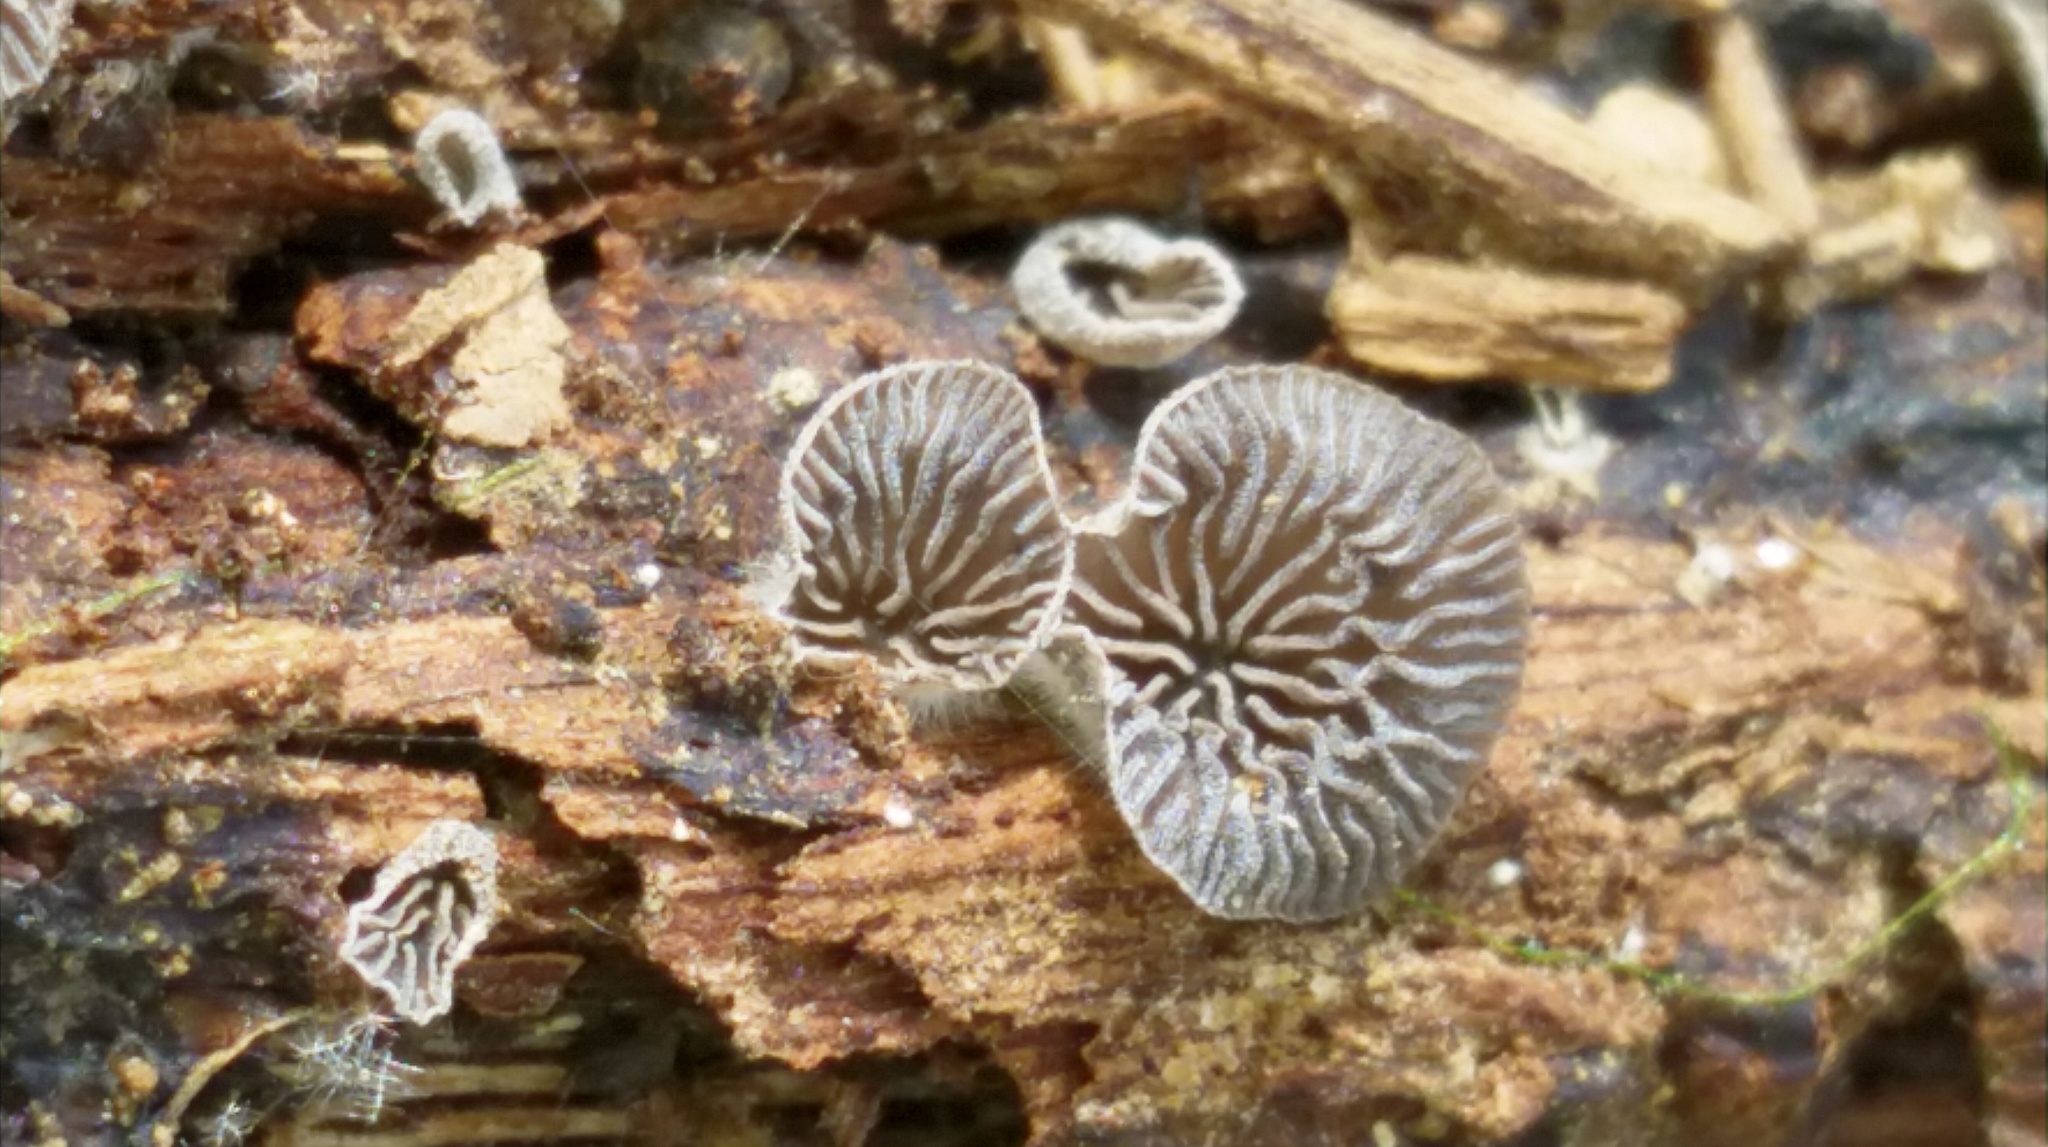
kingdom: Fungi
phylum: Basidiomycota
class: Agaricomycetes
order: Agaricales
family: Pleurotaceae
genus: Resupinatus
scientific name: Resupinatus applicatus
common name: Smoked oysterling
